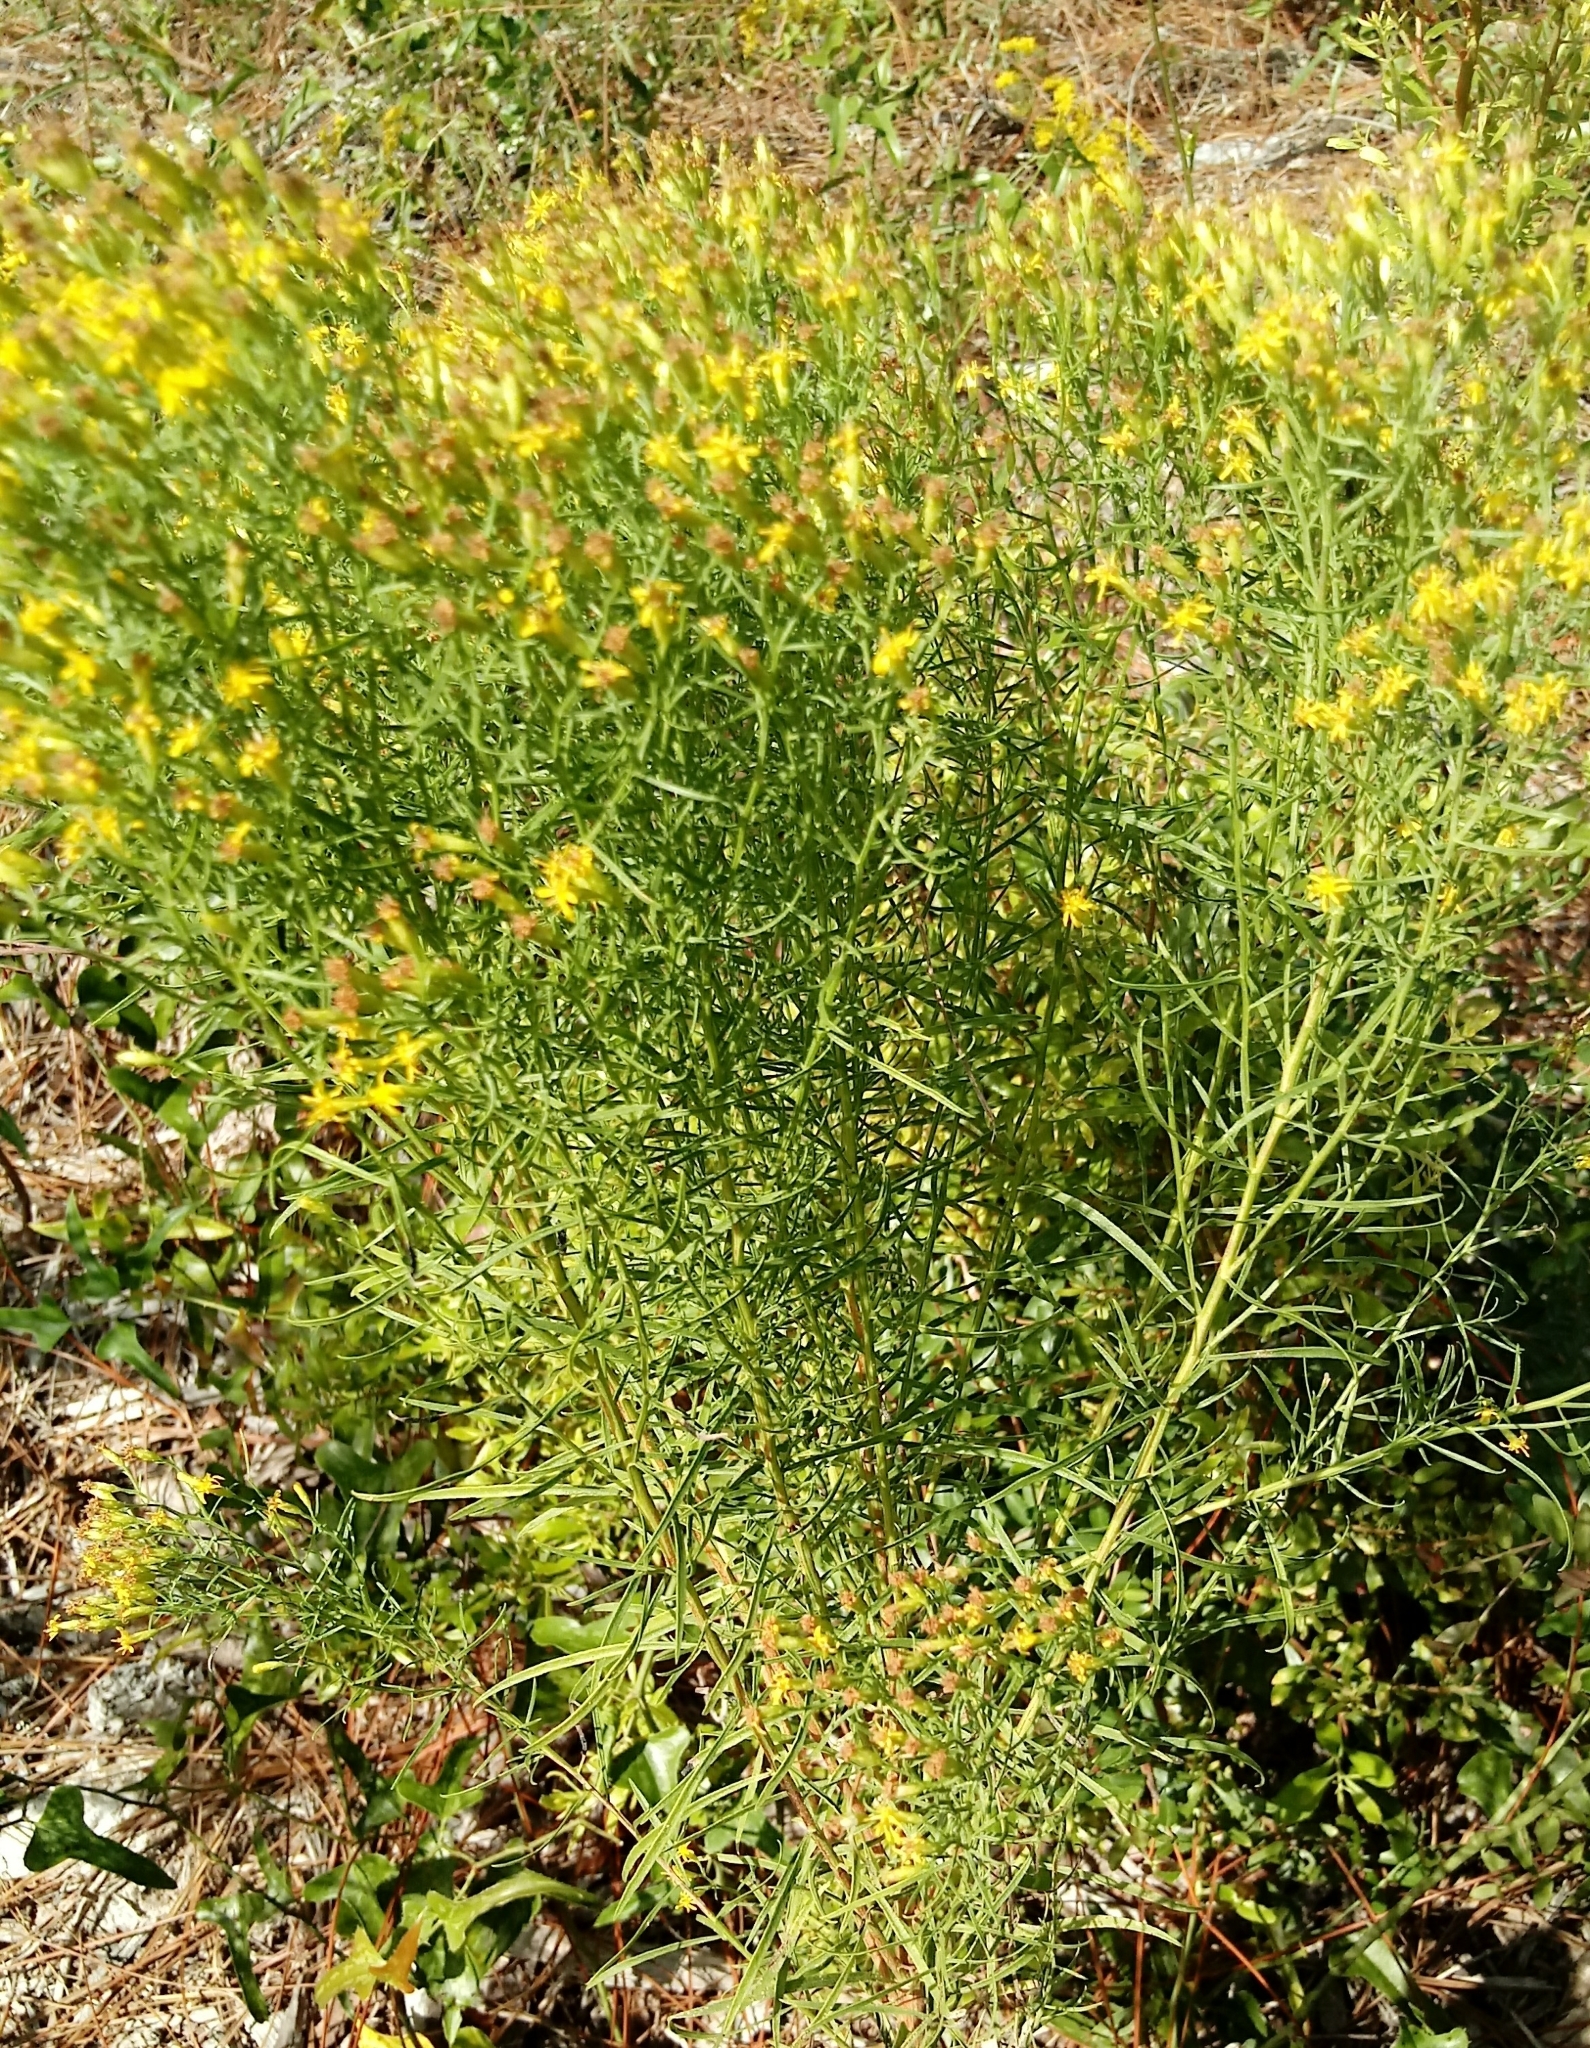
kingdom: Plantae
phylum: Tracheophyta
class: Magnoliopsida
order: Asterales
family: Asteraceae
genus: Euthamia
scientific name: Euthamia caroliniana
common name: Coastal plain goldentop
